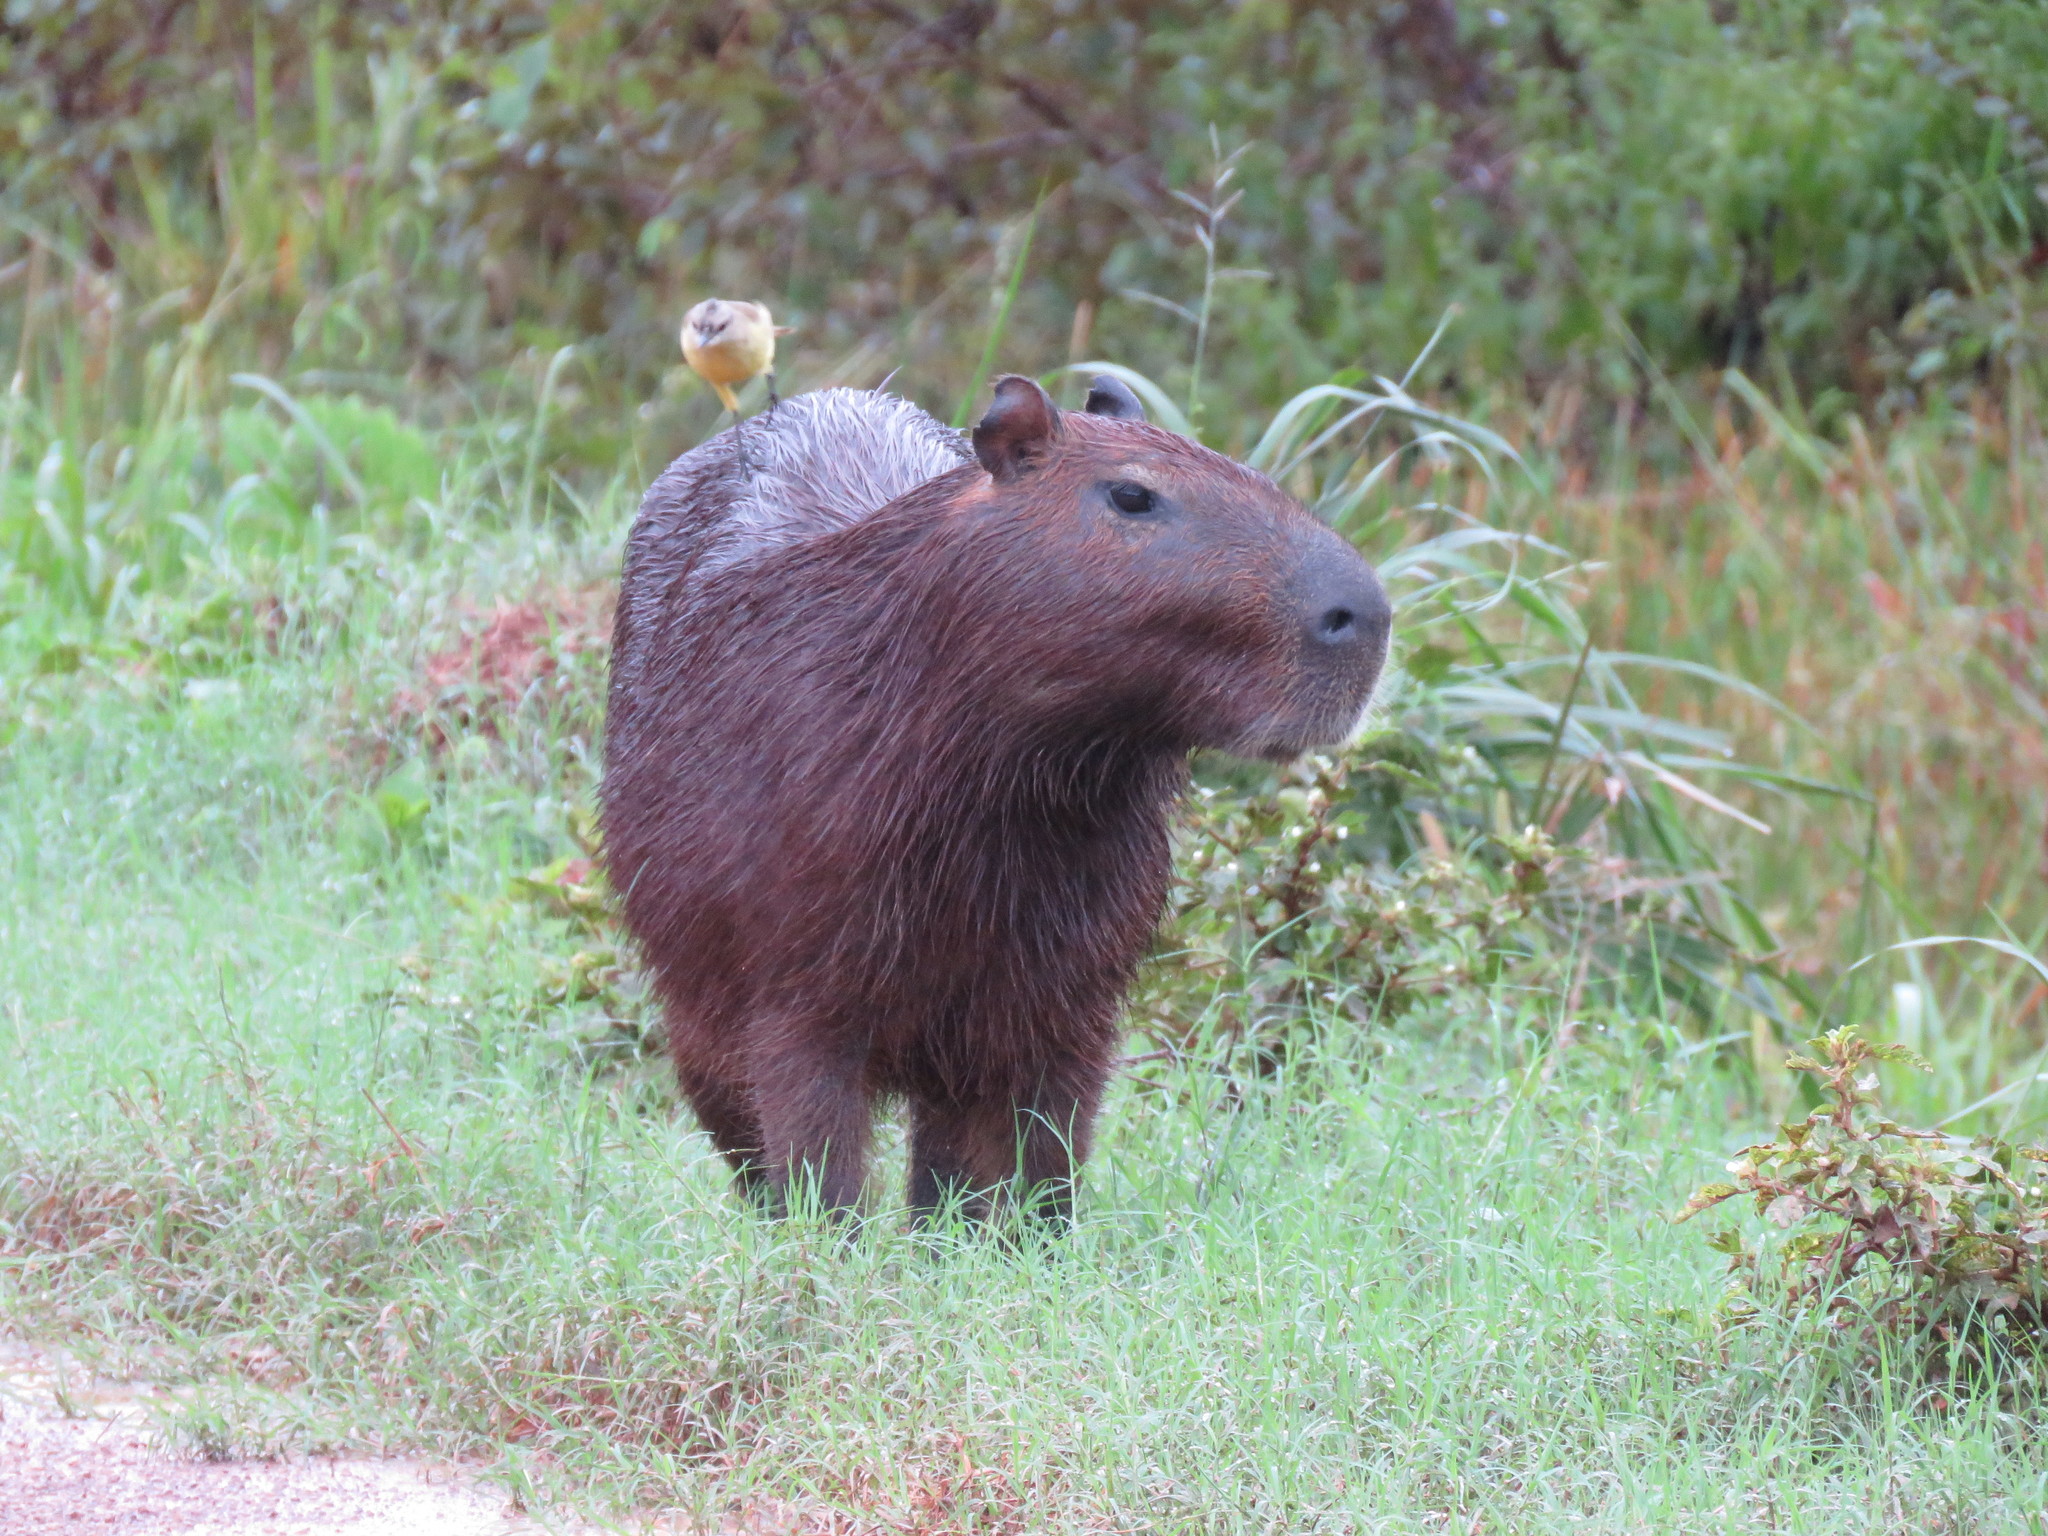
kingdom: Animalia
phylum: Chordata
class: Aves
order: Passeriformes
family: Tyrannidae
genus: Machetornis
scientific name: Machetornis rixosa
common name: Cattle tyrant
